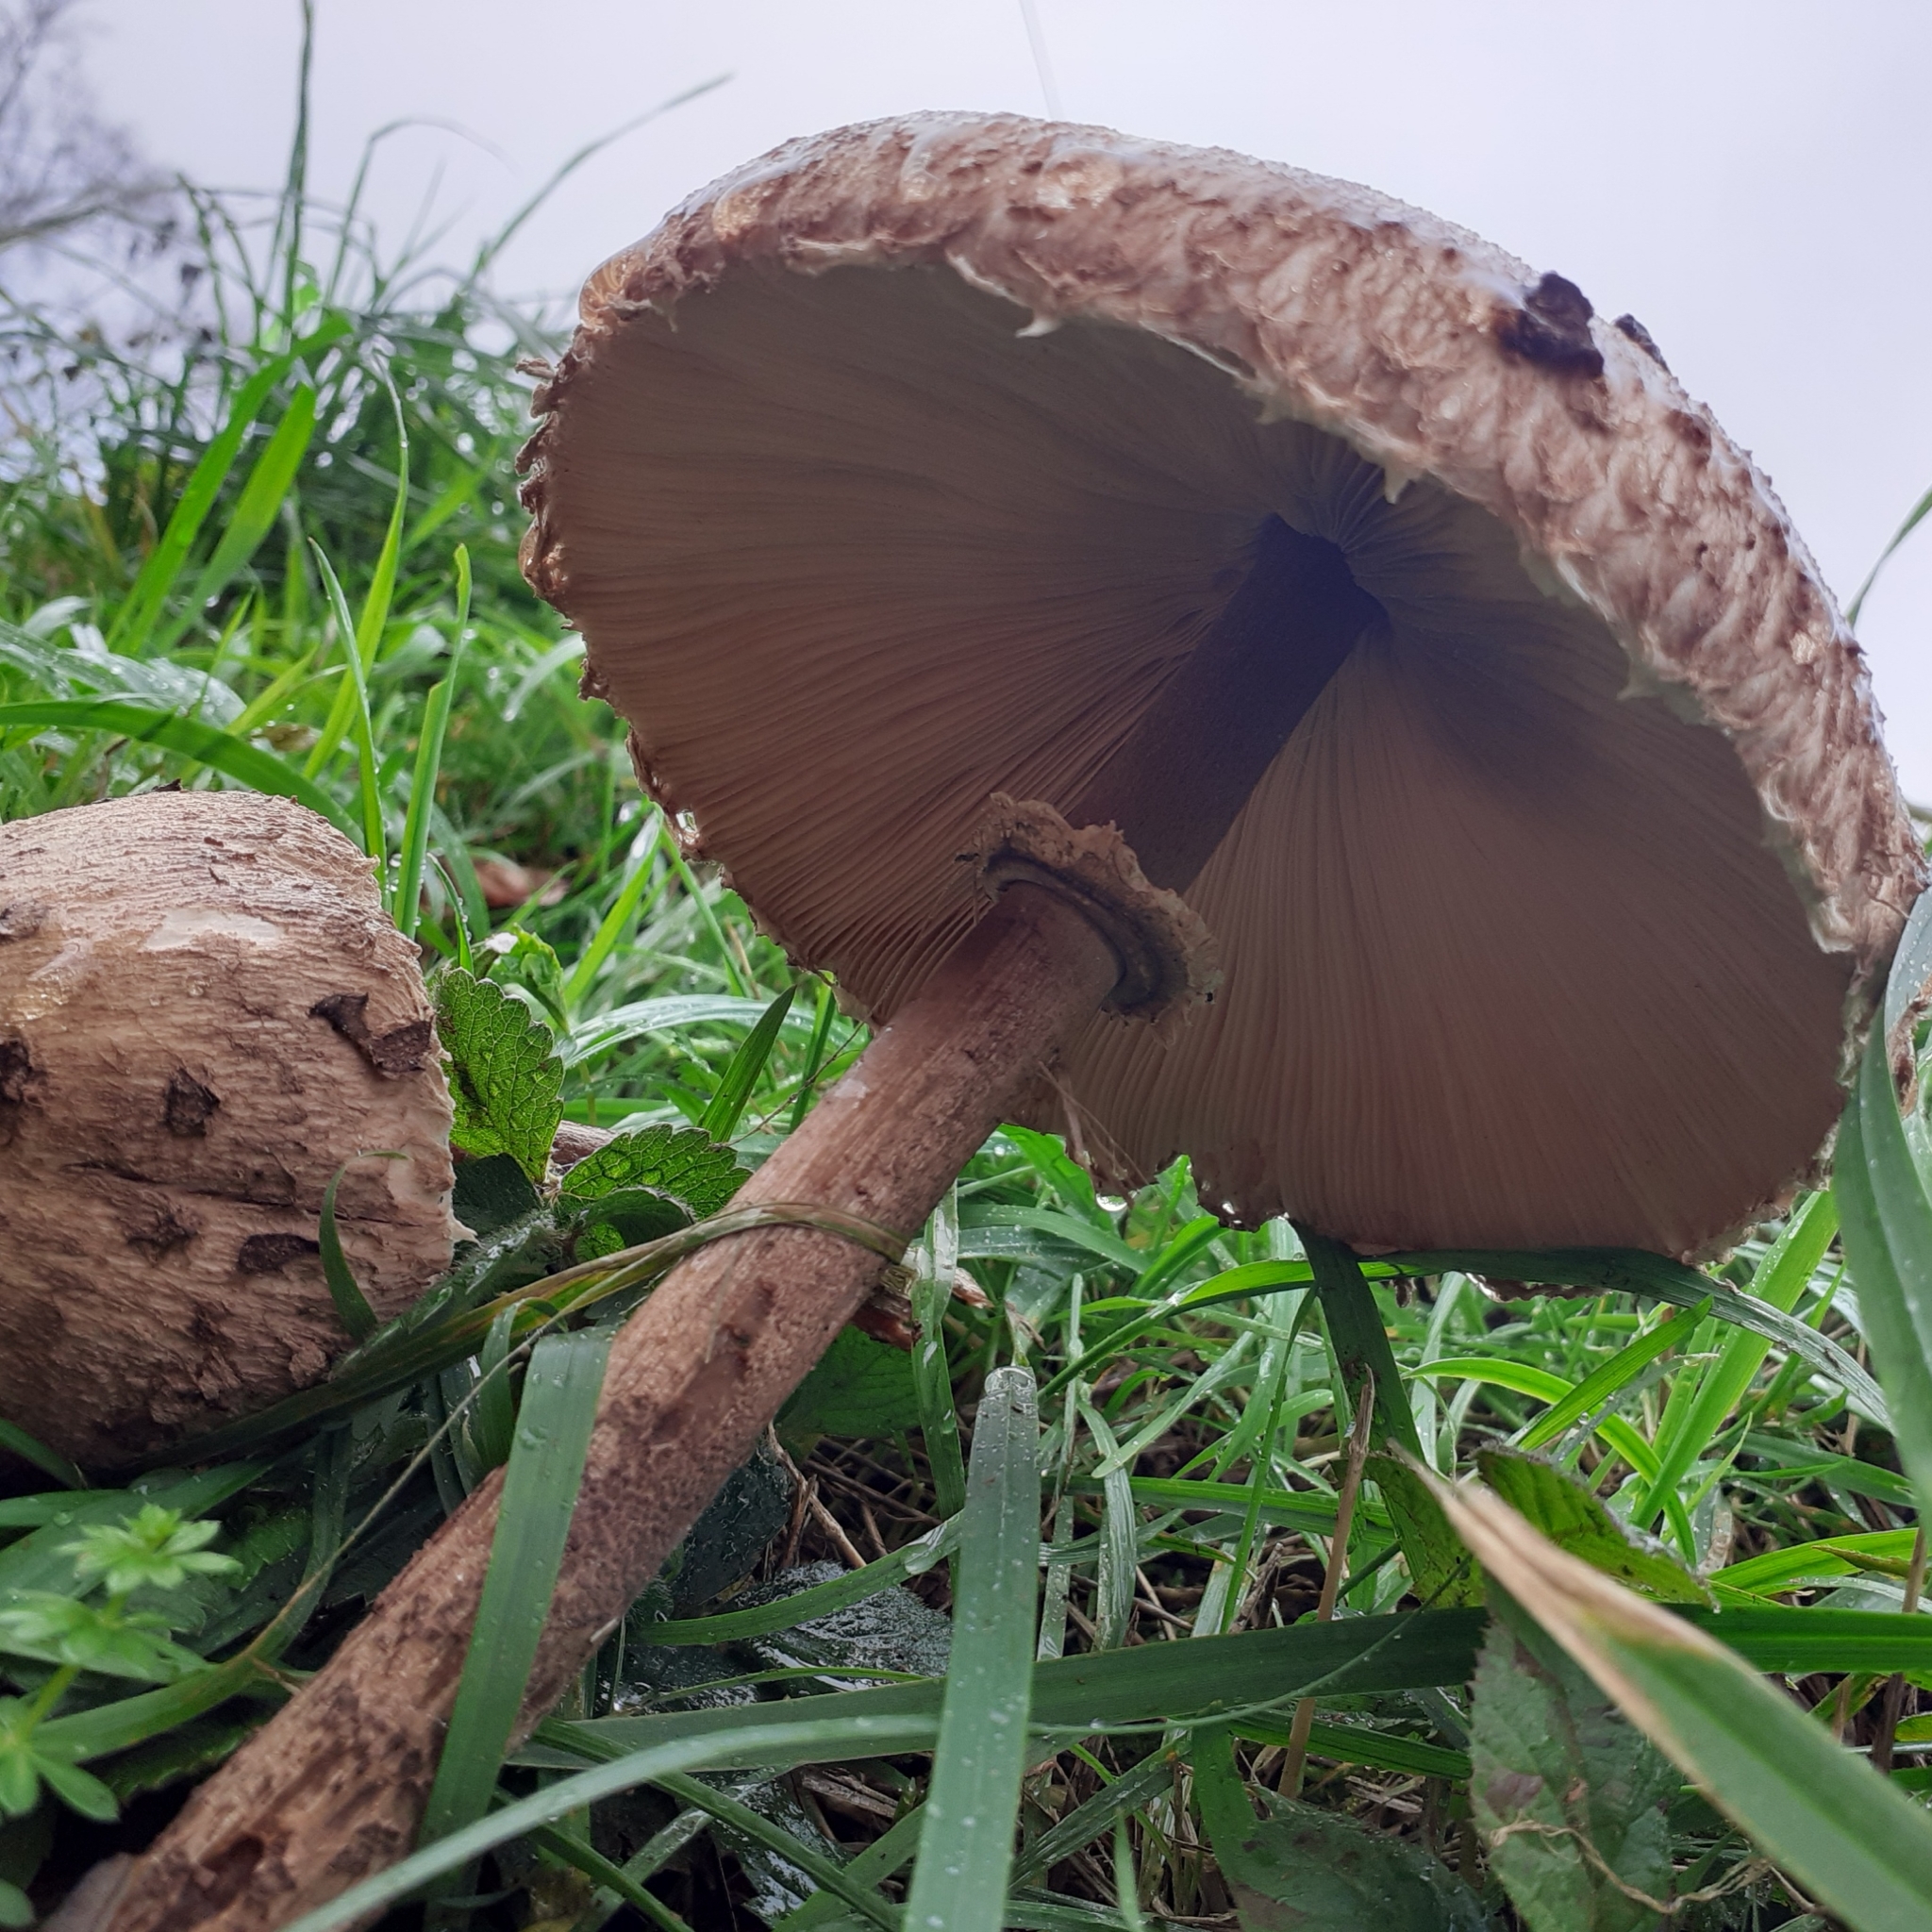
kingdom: Fungi
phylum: Basidiomycota
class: Agaricomycetes
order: Agaricales
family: Agaricaceae
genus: Macrolepiota
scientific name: Macrolepiota procera
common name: Parasol
